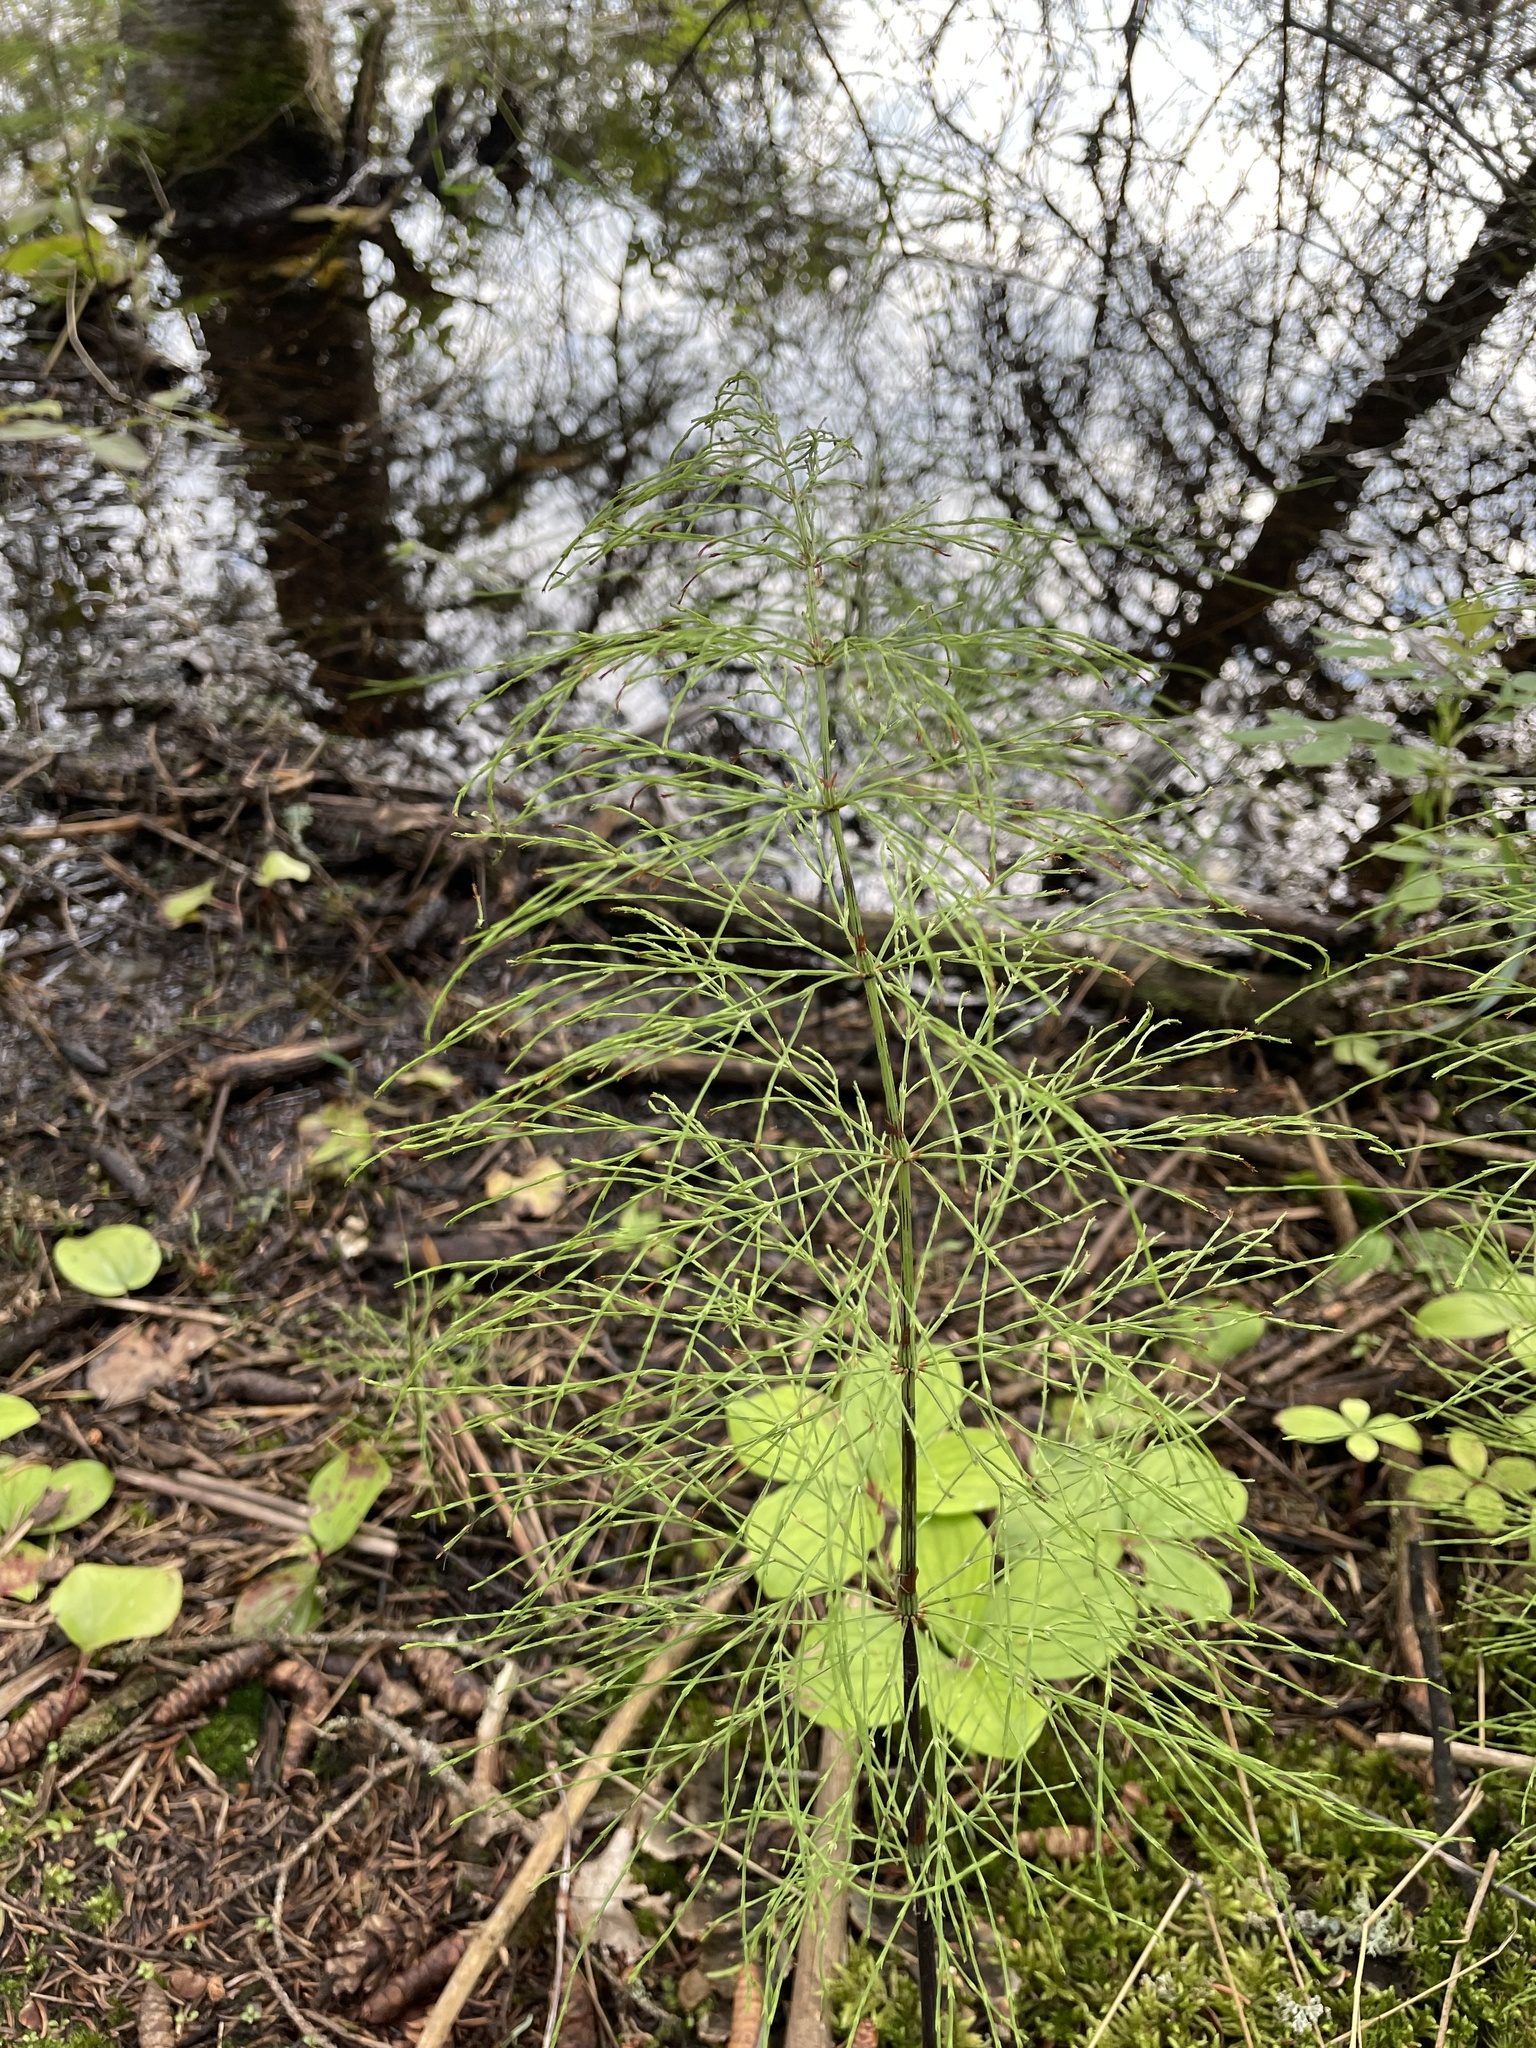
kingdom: Plantae
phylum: Tracheophyta
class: Polypodiopsida
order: Equisetales
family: Equisetaceae
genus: Equisetum
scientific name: Equisetum sylvaticum
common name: Wood horsetail
